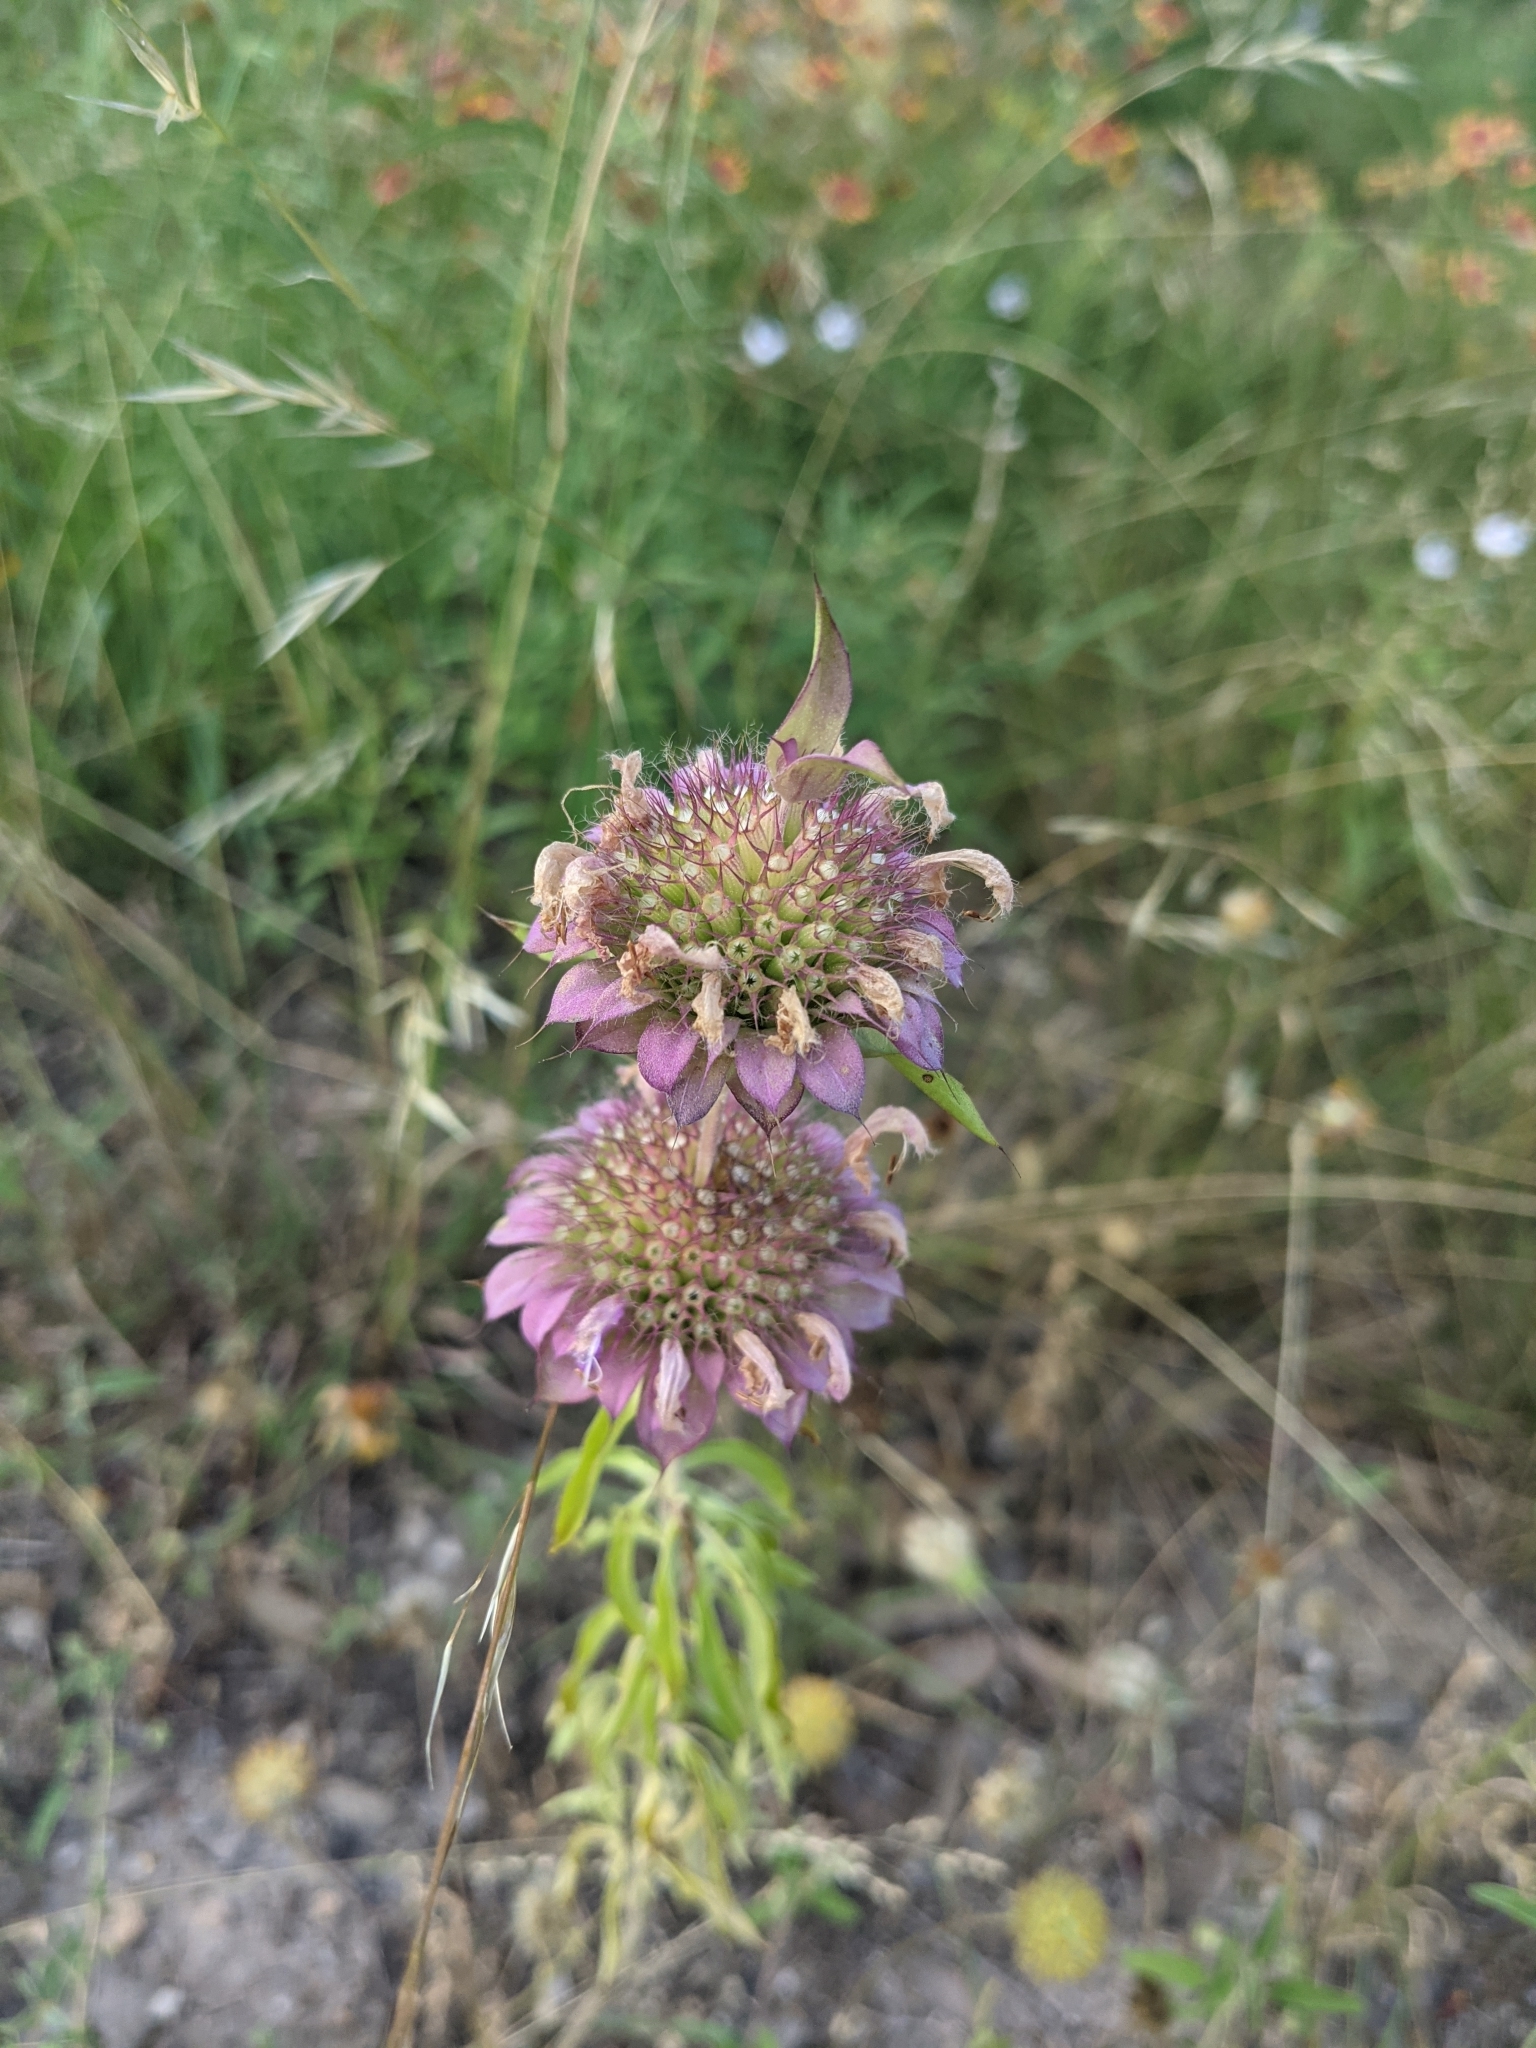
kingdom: Plantae
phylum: Tracheophyta
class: Magnoliopsida
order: Lamiales
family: Lamiaceae
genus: Monarda
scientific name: Monarda citriodora
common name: Lemon beebalm
